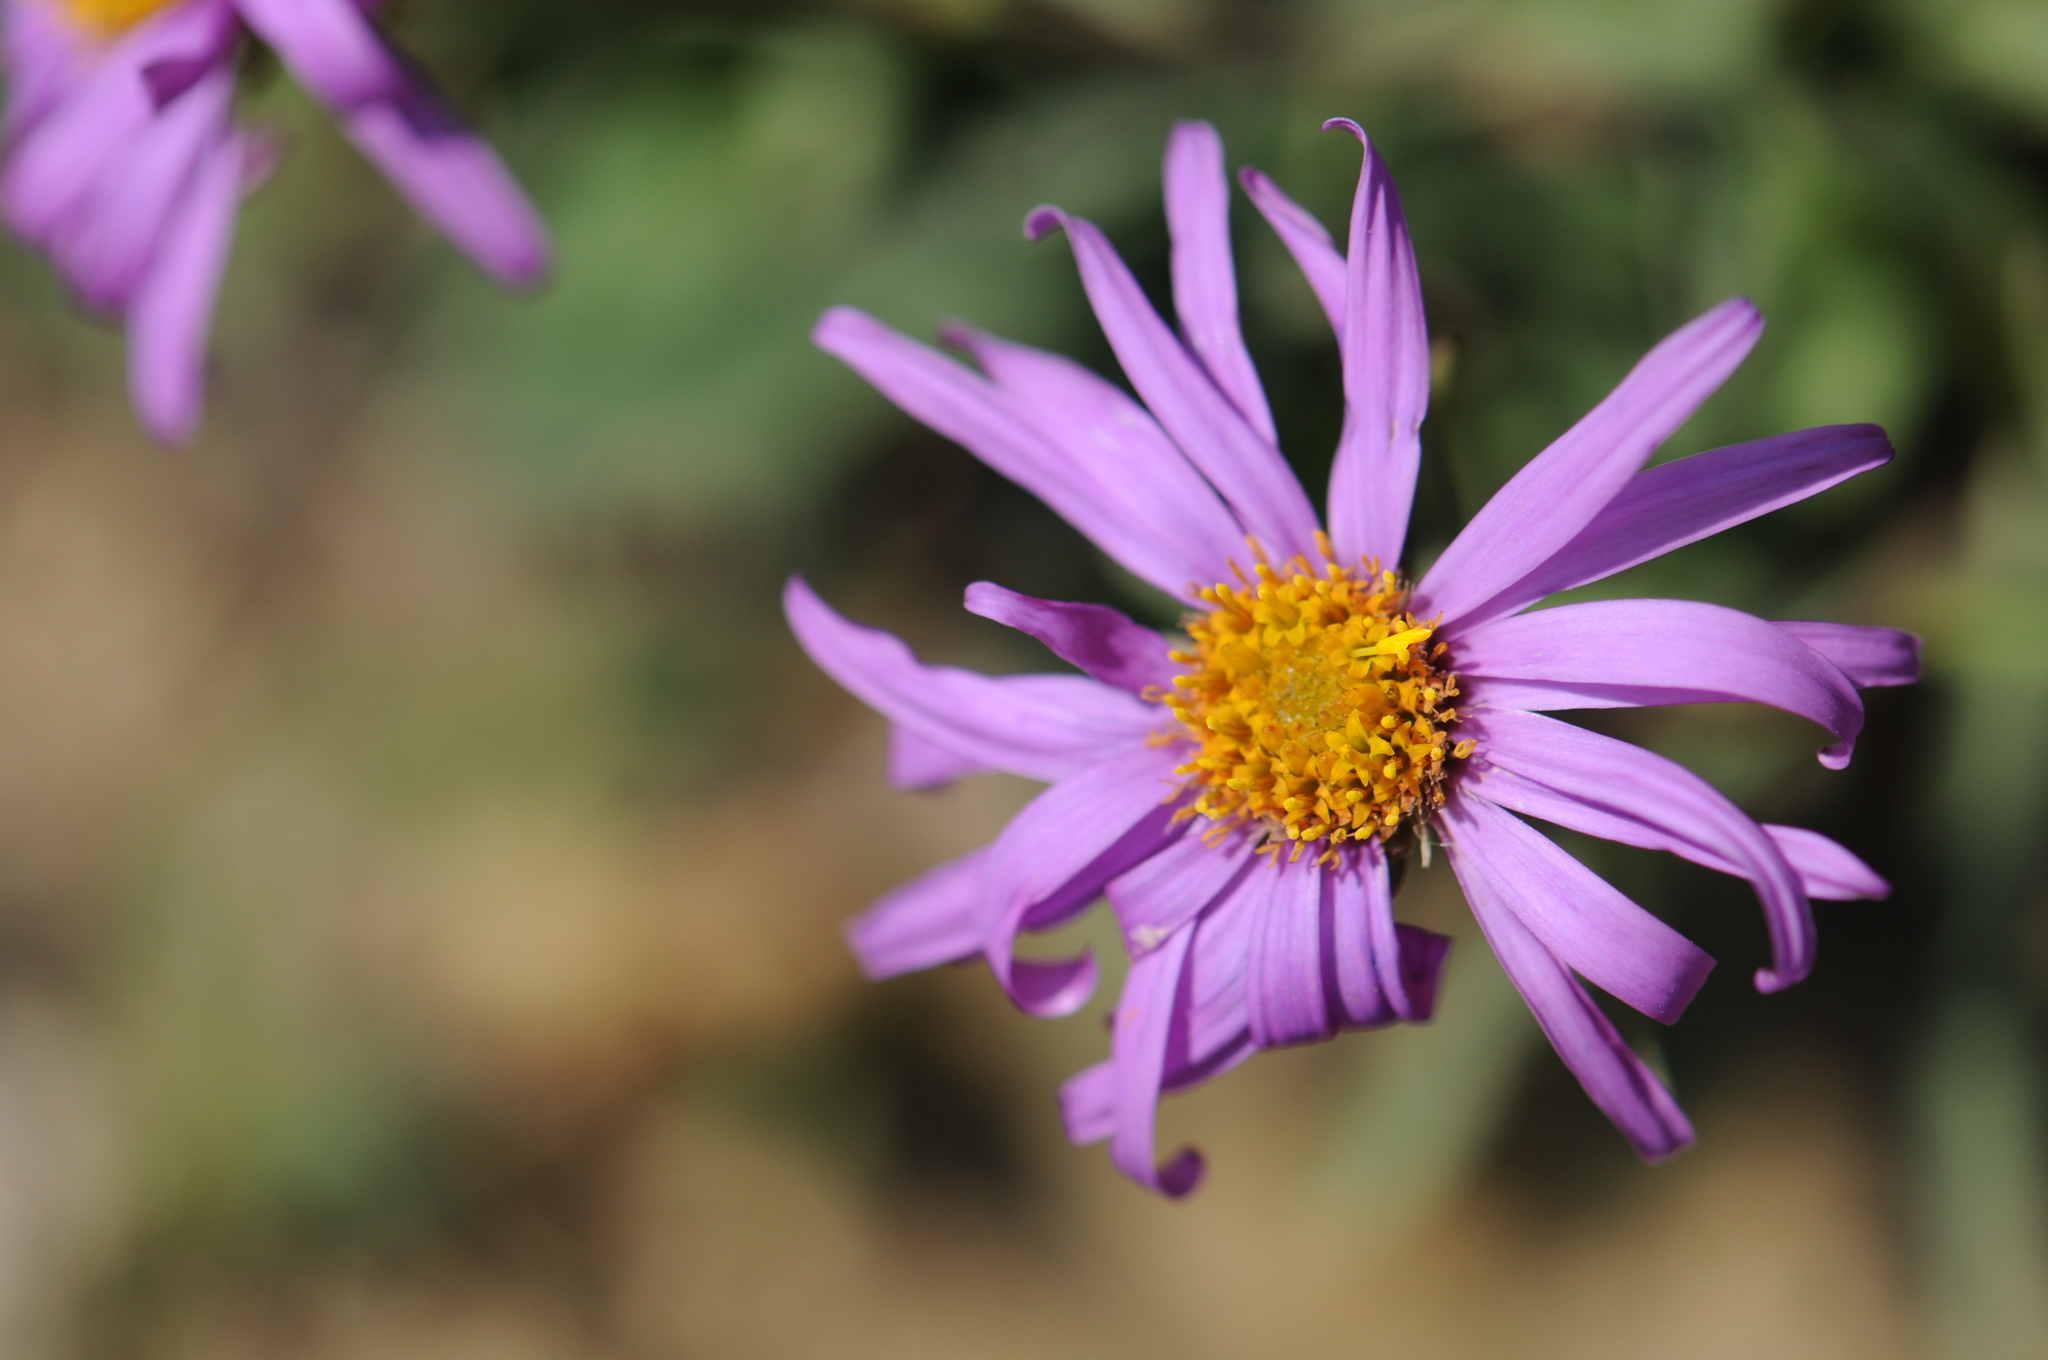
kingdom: Plantae
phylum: Tracheophyta
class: Magnoliopsida
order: Asterales
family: Asteraceae
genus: Aster
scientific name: Aster alpinus
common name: Alpine aster
